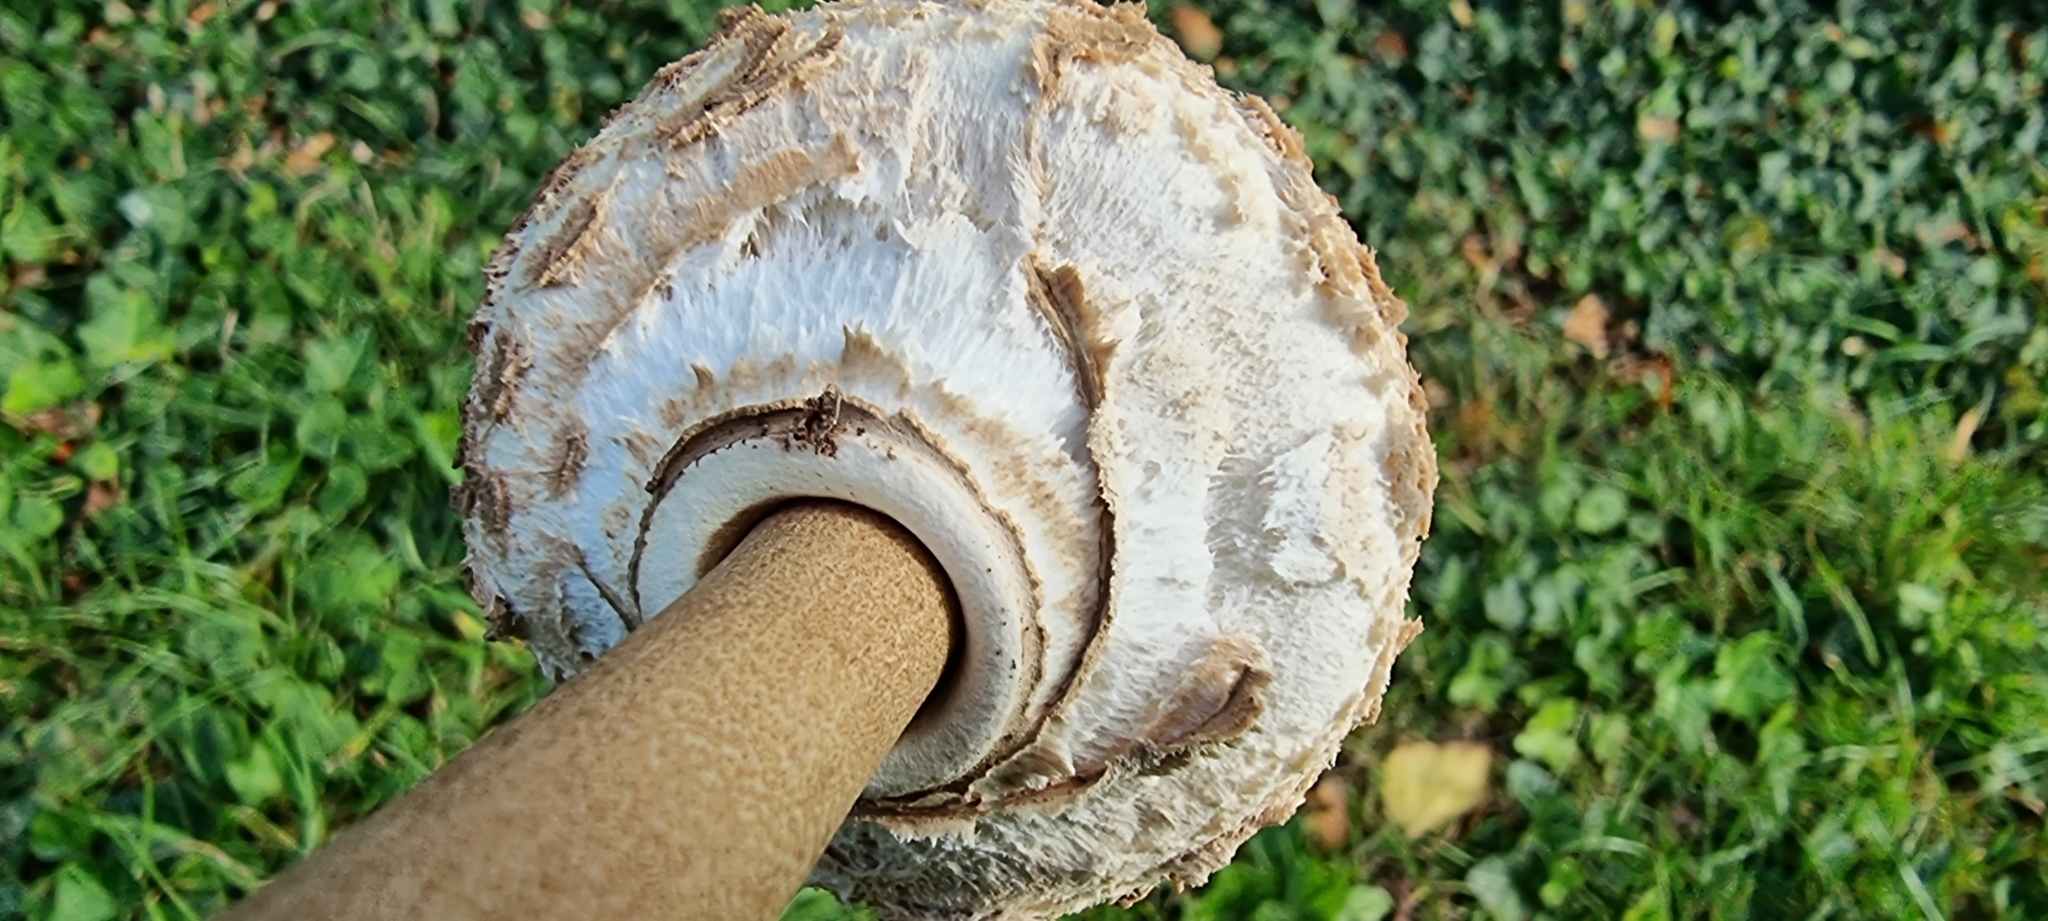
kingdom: Fungi
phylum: Basidiomycota
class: Agaricomycetes
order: Agaricales
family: Agaricaceae
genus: Macrolepiota
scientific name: Macrolepiota procera
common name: Parasol
